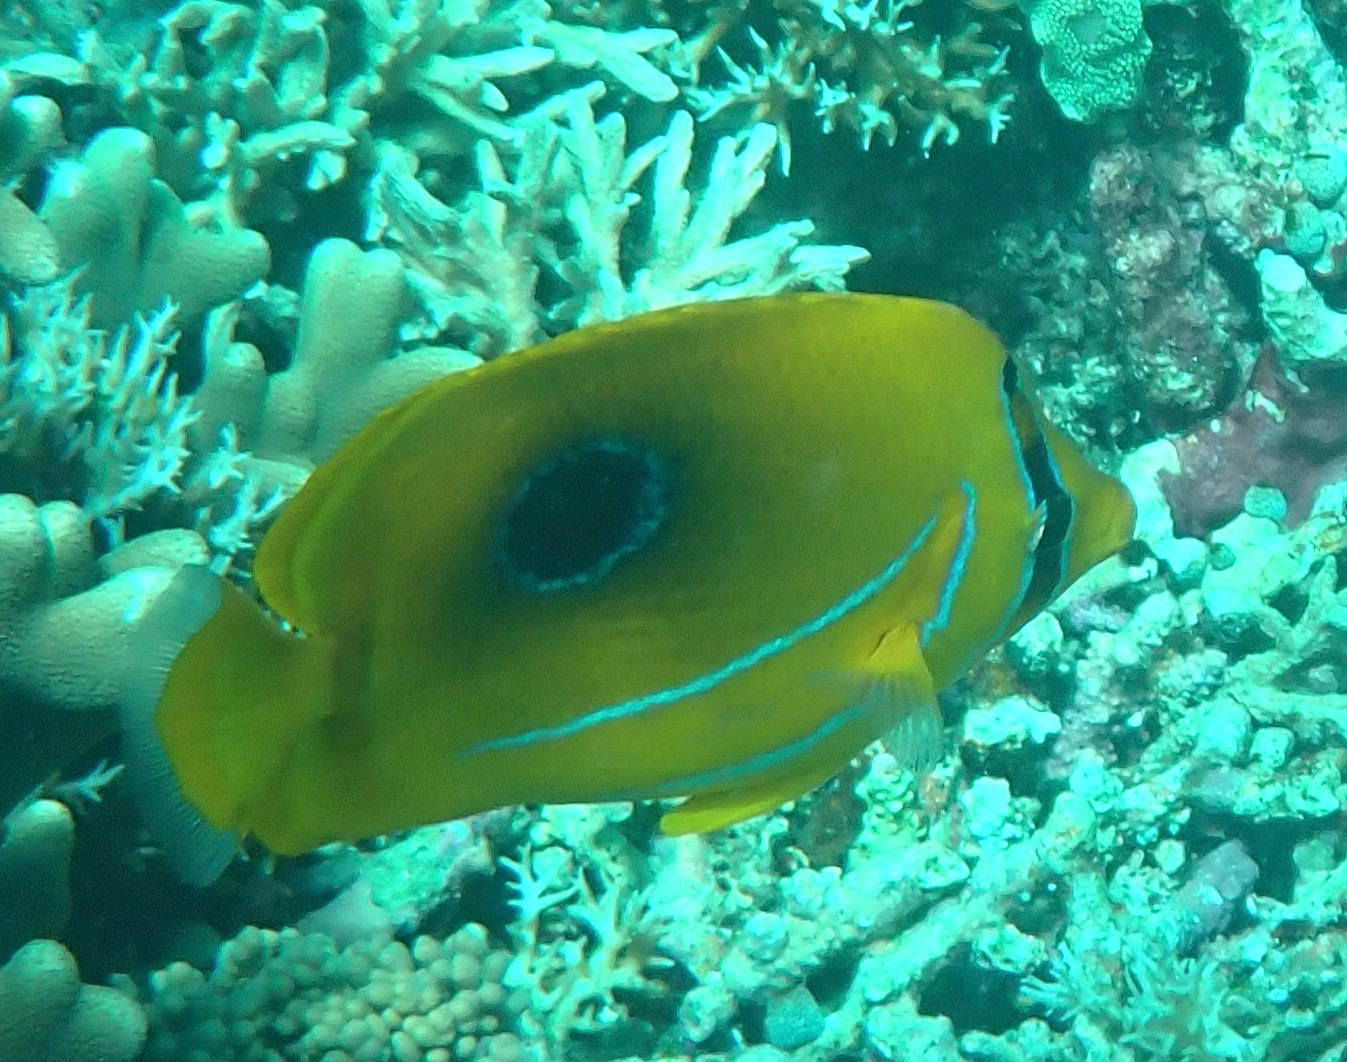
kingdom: Animalia
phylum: Chordata
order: Perciformes
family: Chaetodontidae
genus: Chaetodon
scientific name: Chaetodon bennetti
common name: Bennett's butterflyfish
